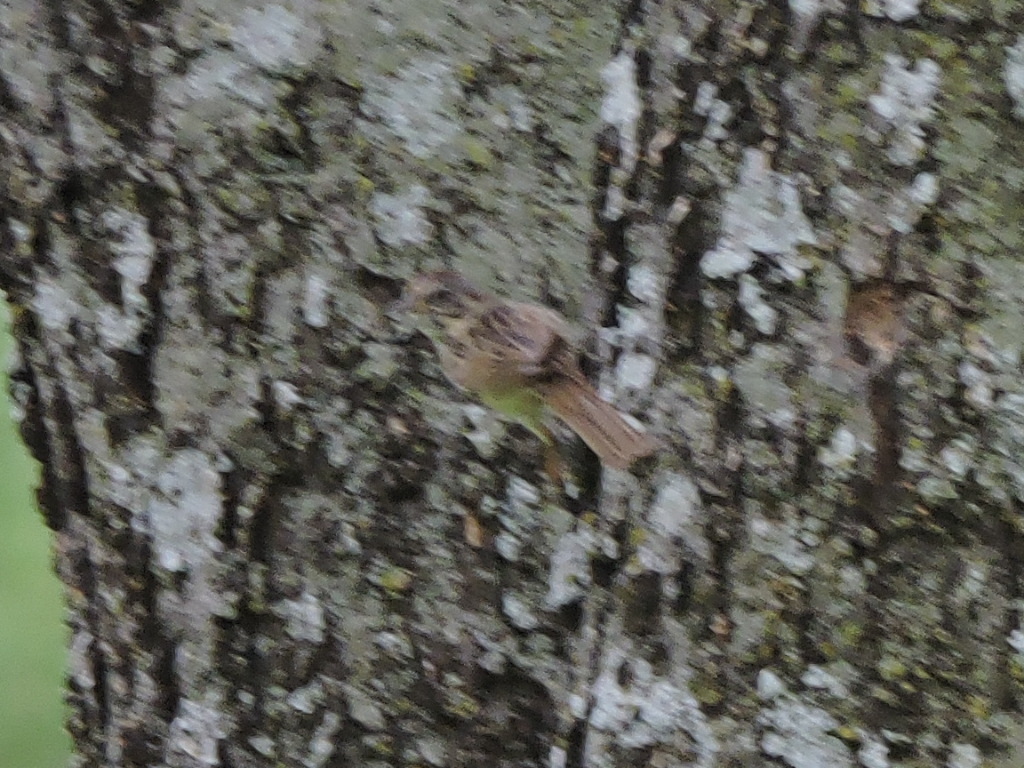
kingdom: Animalia
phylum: Chordata
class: Aves
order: Passeriformes
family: Passerellidae
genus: Melospiza
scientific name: Melospiza lincolnii
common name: Lincoln's sparrow
